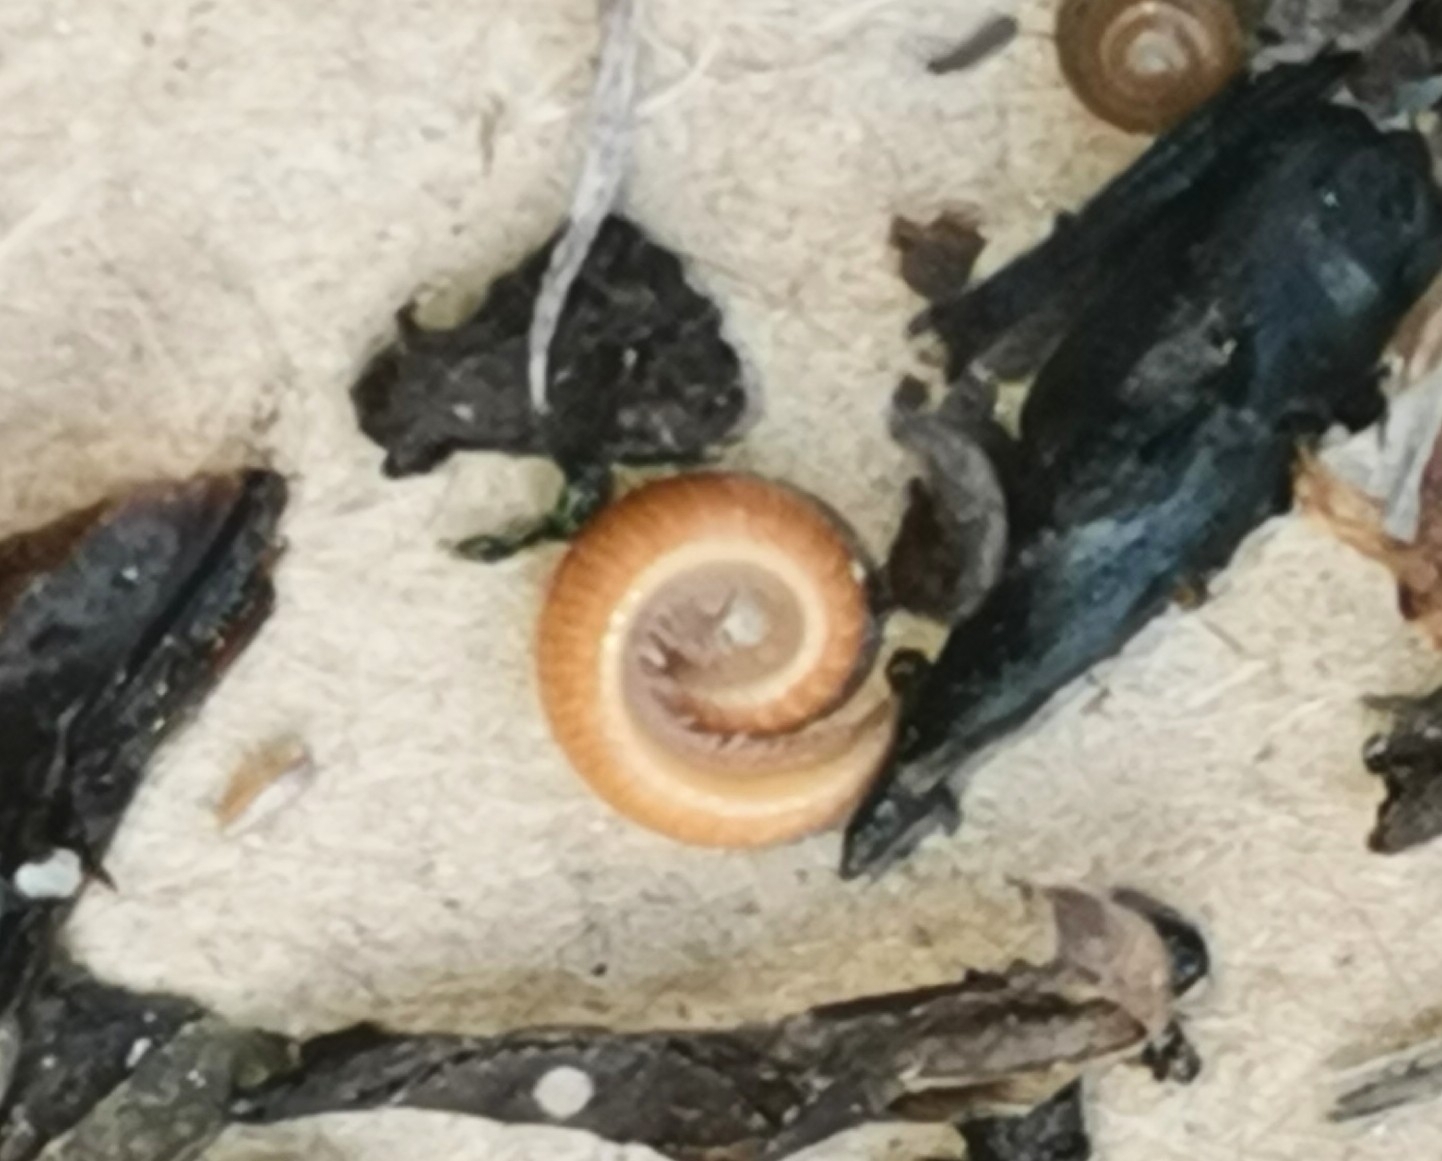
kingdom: Animalia
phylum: Arthropoda
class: Diplopoda
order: Polyzoniida
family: Polyzoniidae
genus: Polyzonium
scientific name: Polyzonium germanicum
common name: Boring millipede
